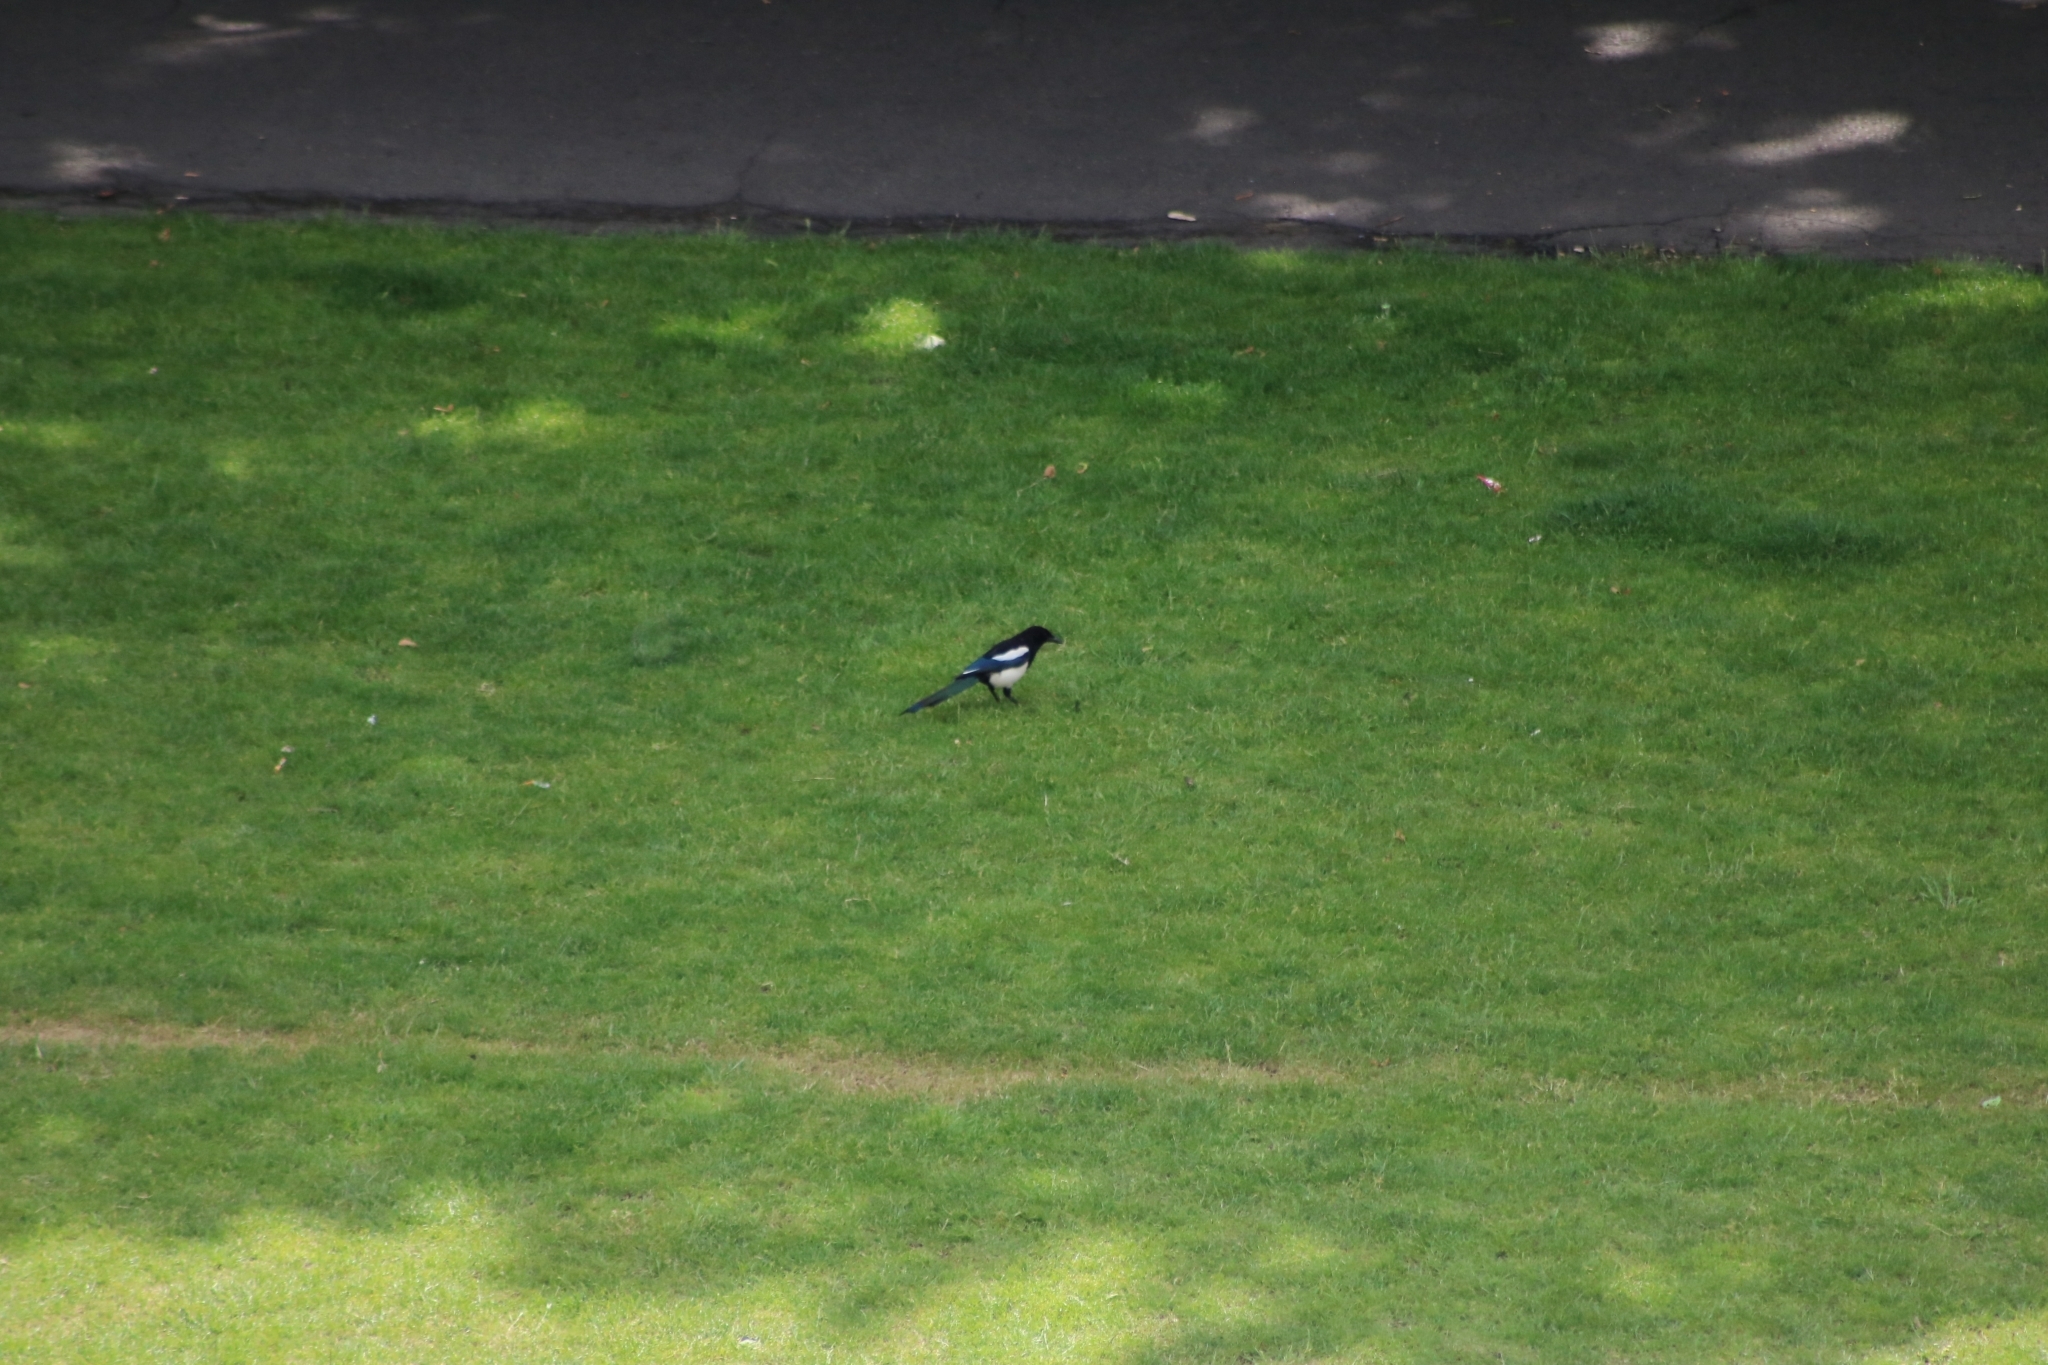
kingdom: Animalia
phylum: Chordata
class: Aves
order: Passeriformes
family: Corvidae
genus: Pica
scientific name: Pica pica
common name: Eurasian magpie
